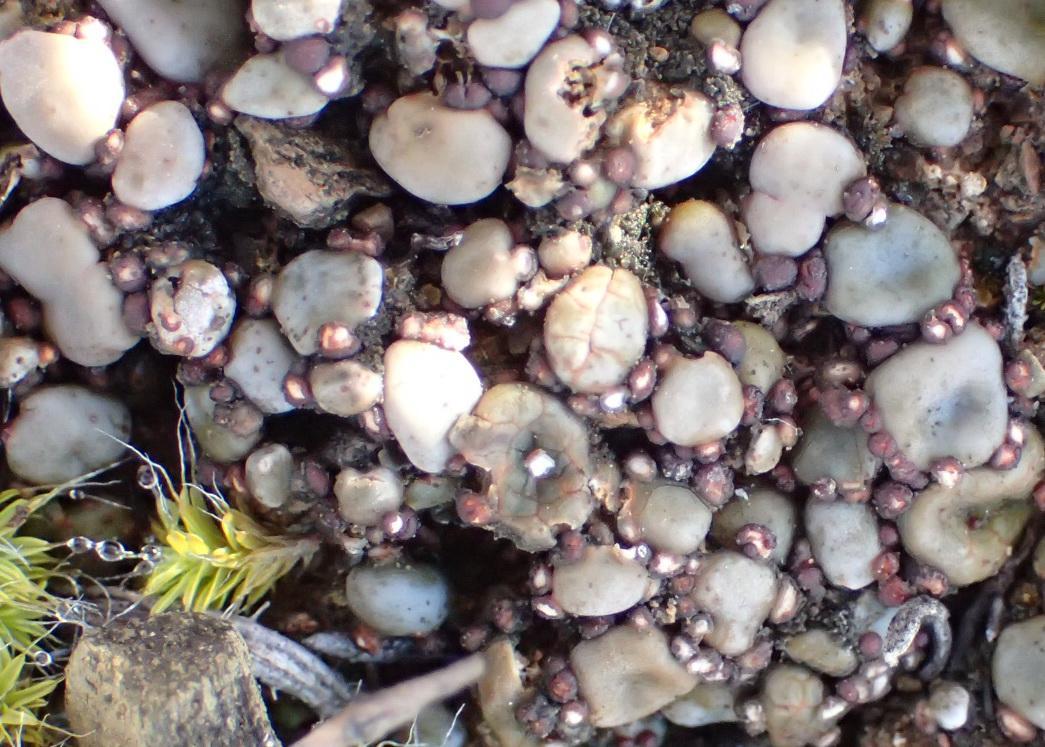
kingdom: Fungi
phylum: Ascomycota
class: Lecanoromycetes
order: Lecanorales
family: Psoraceae
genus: Psora
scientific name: Psora crenata
